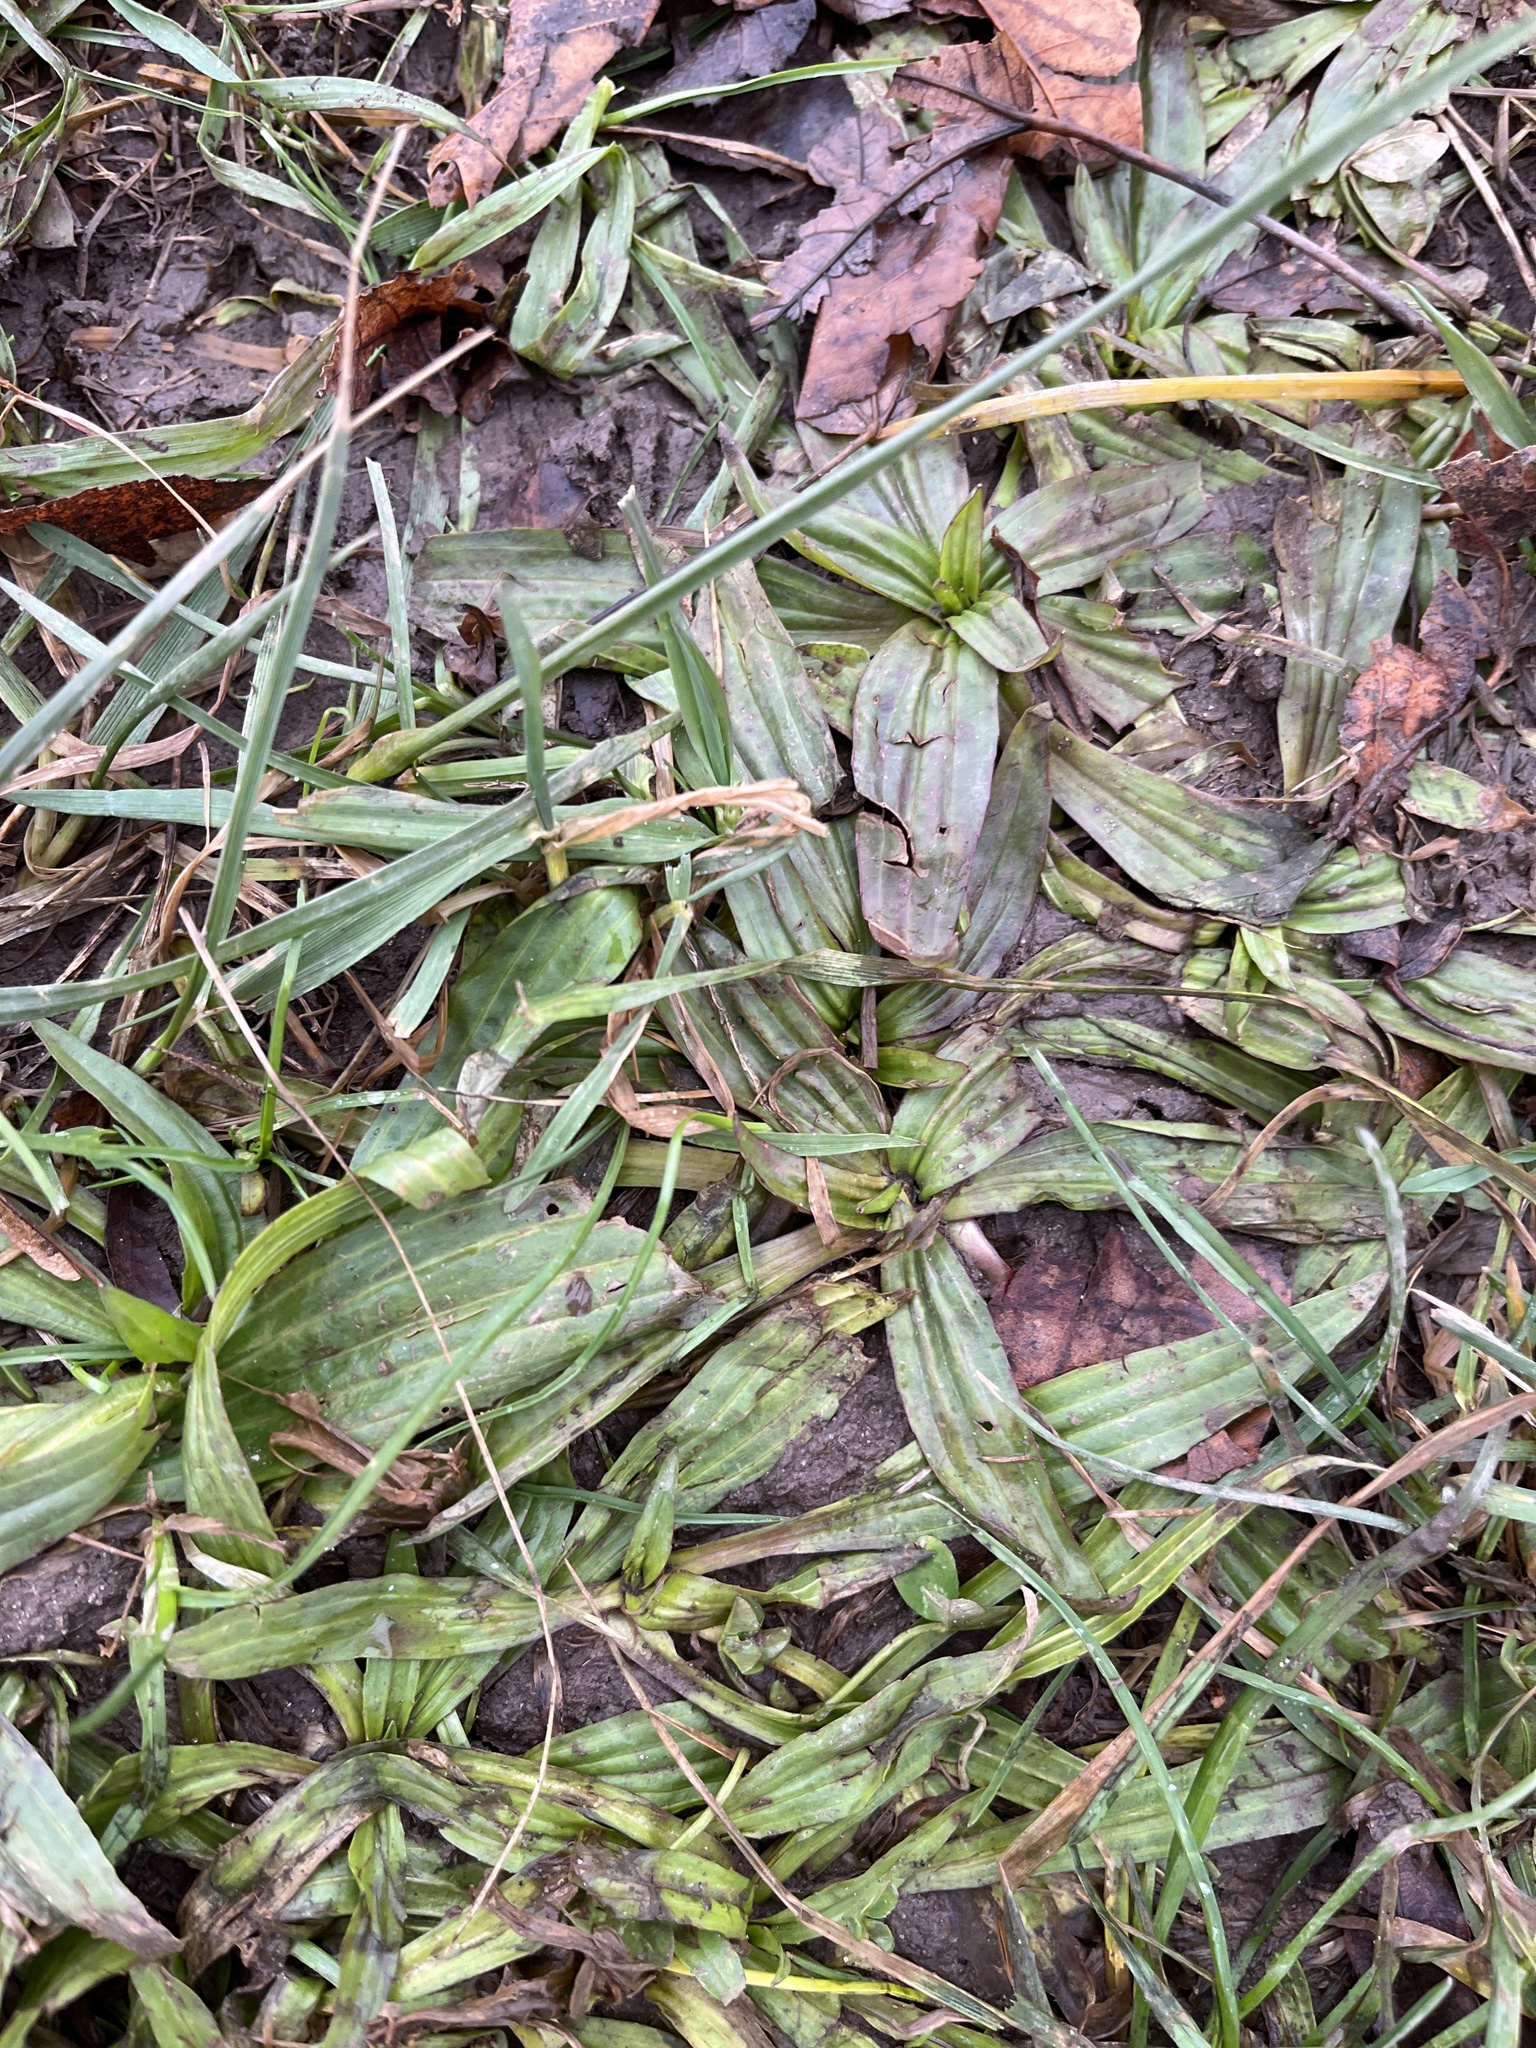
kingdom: Plantae
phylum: Tracheophyta
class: Magnoliopsida
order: Lamiales
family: Plantaginaceae
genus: Plantago
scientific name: Plantago lanceolata
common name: Ribwort plantain
